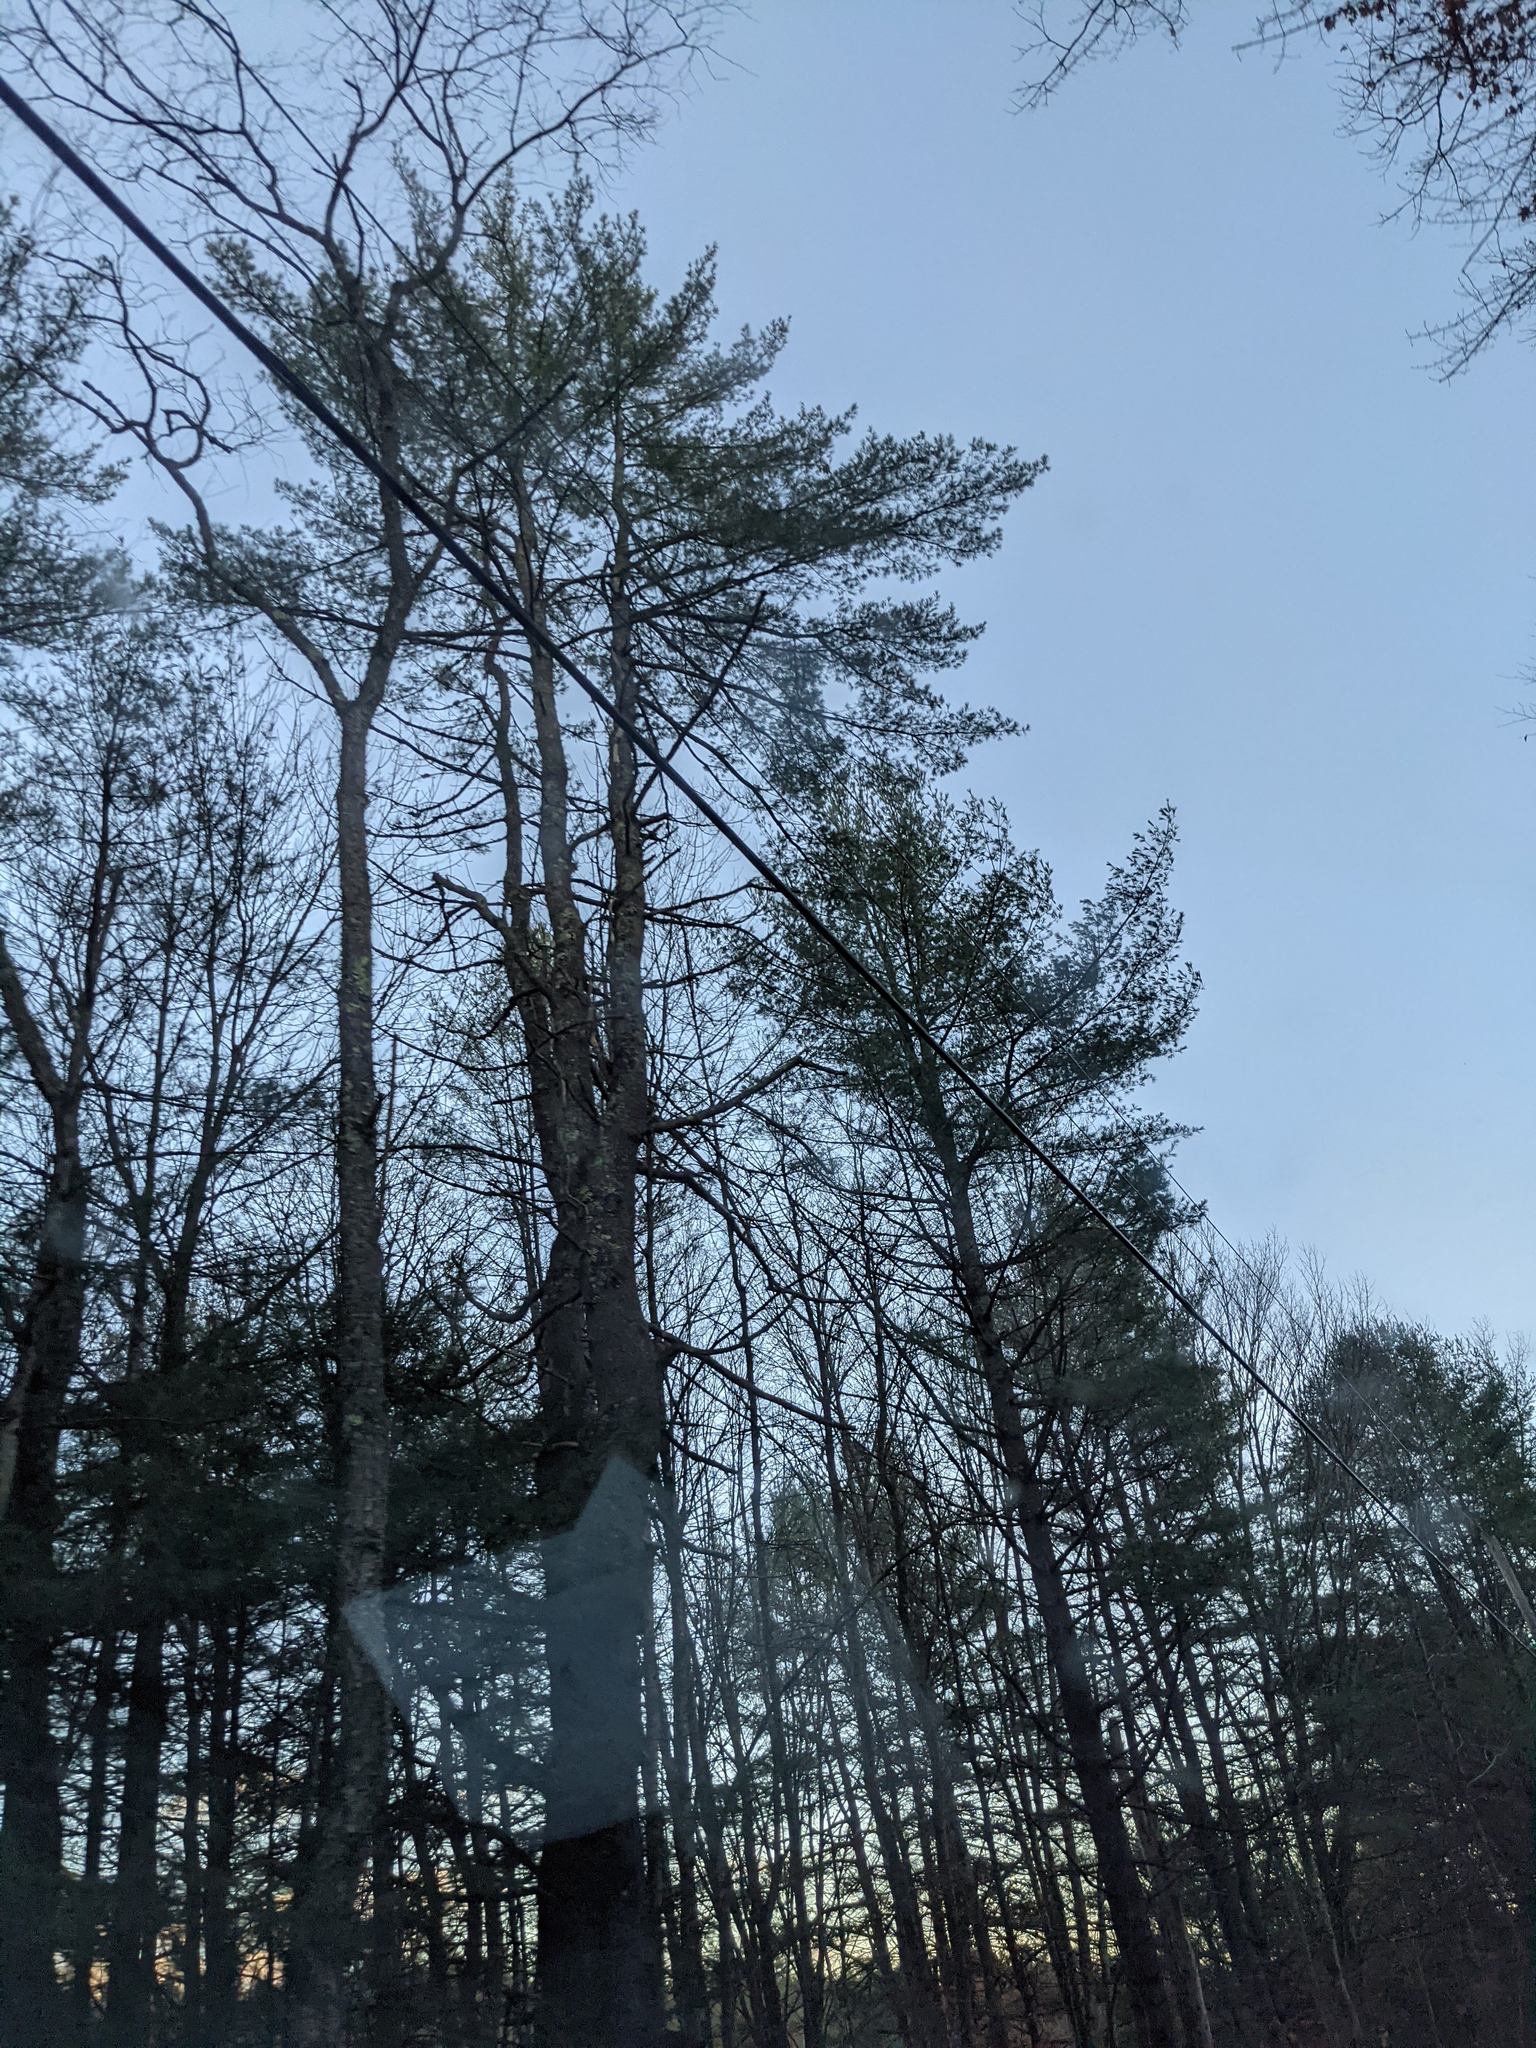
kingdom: Plantae
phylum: Tracheophyta
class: Pinopsida
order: Pinales
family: Pinaceae
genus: Pinus
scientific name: Pinus strobus
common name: Weymouth pine
